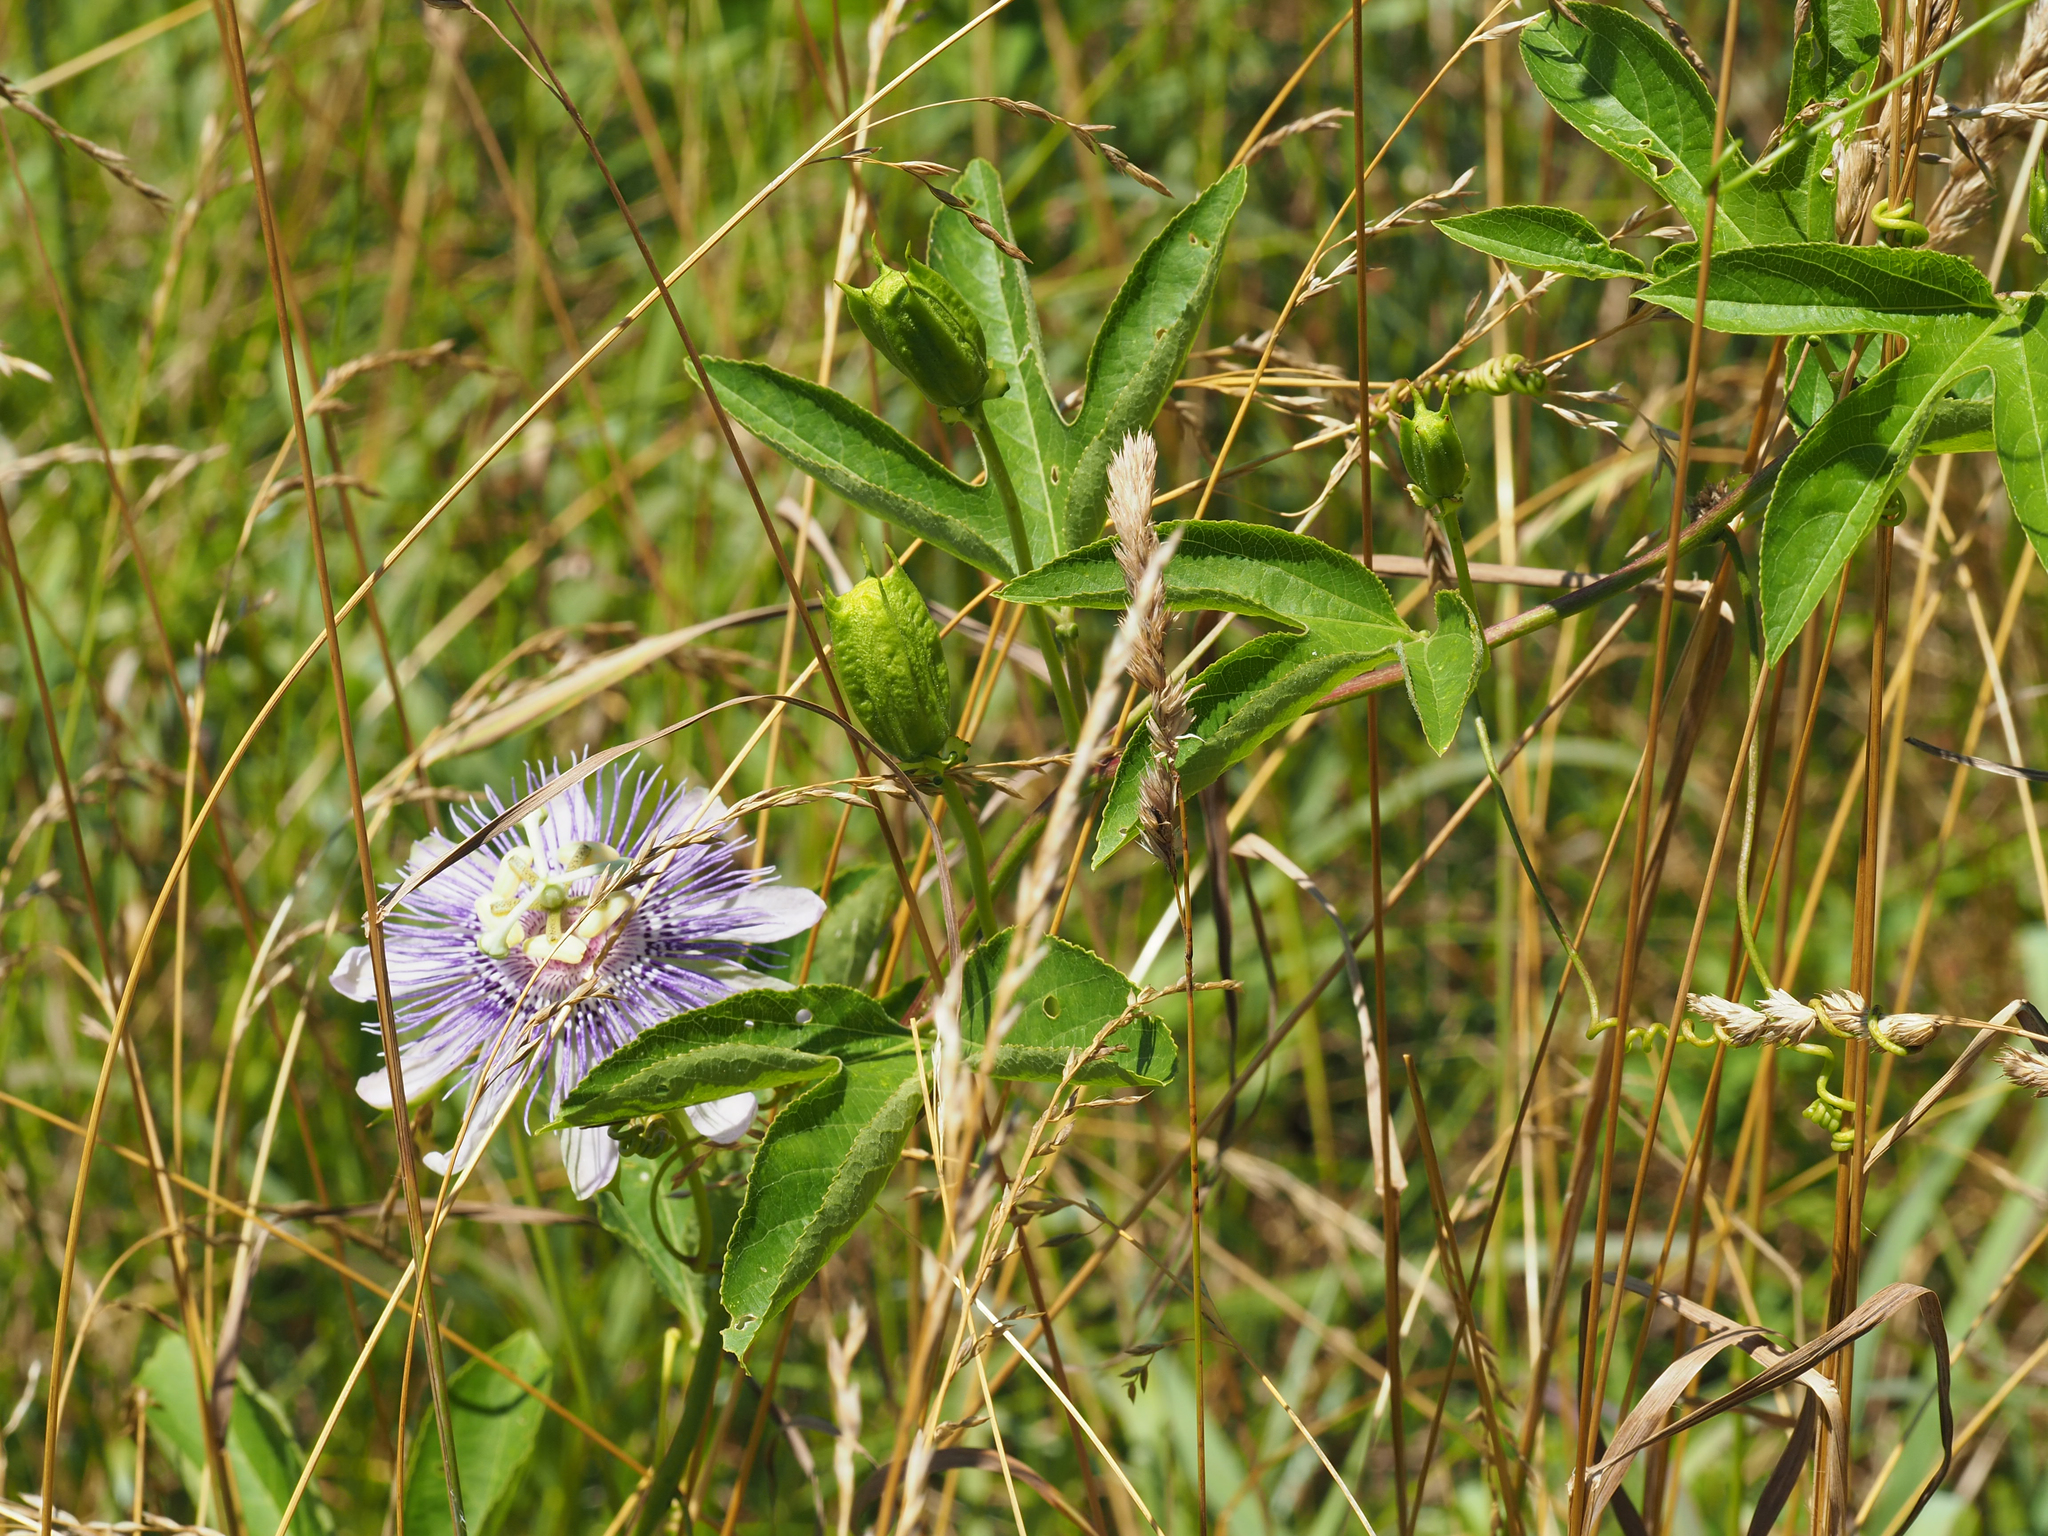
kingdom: Plantae
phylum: Tracheophyta
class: Magnoliopsida
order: Malpighiales
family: Passifloraceae
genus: Passiflora
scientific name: Passiflora incarnata
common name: Apricot-vine
